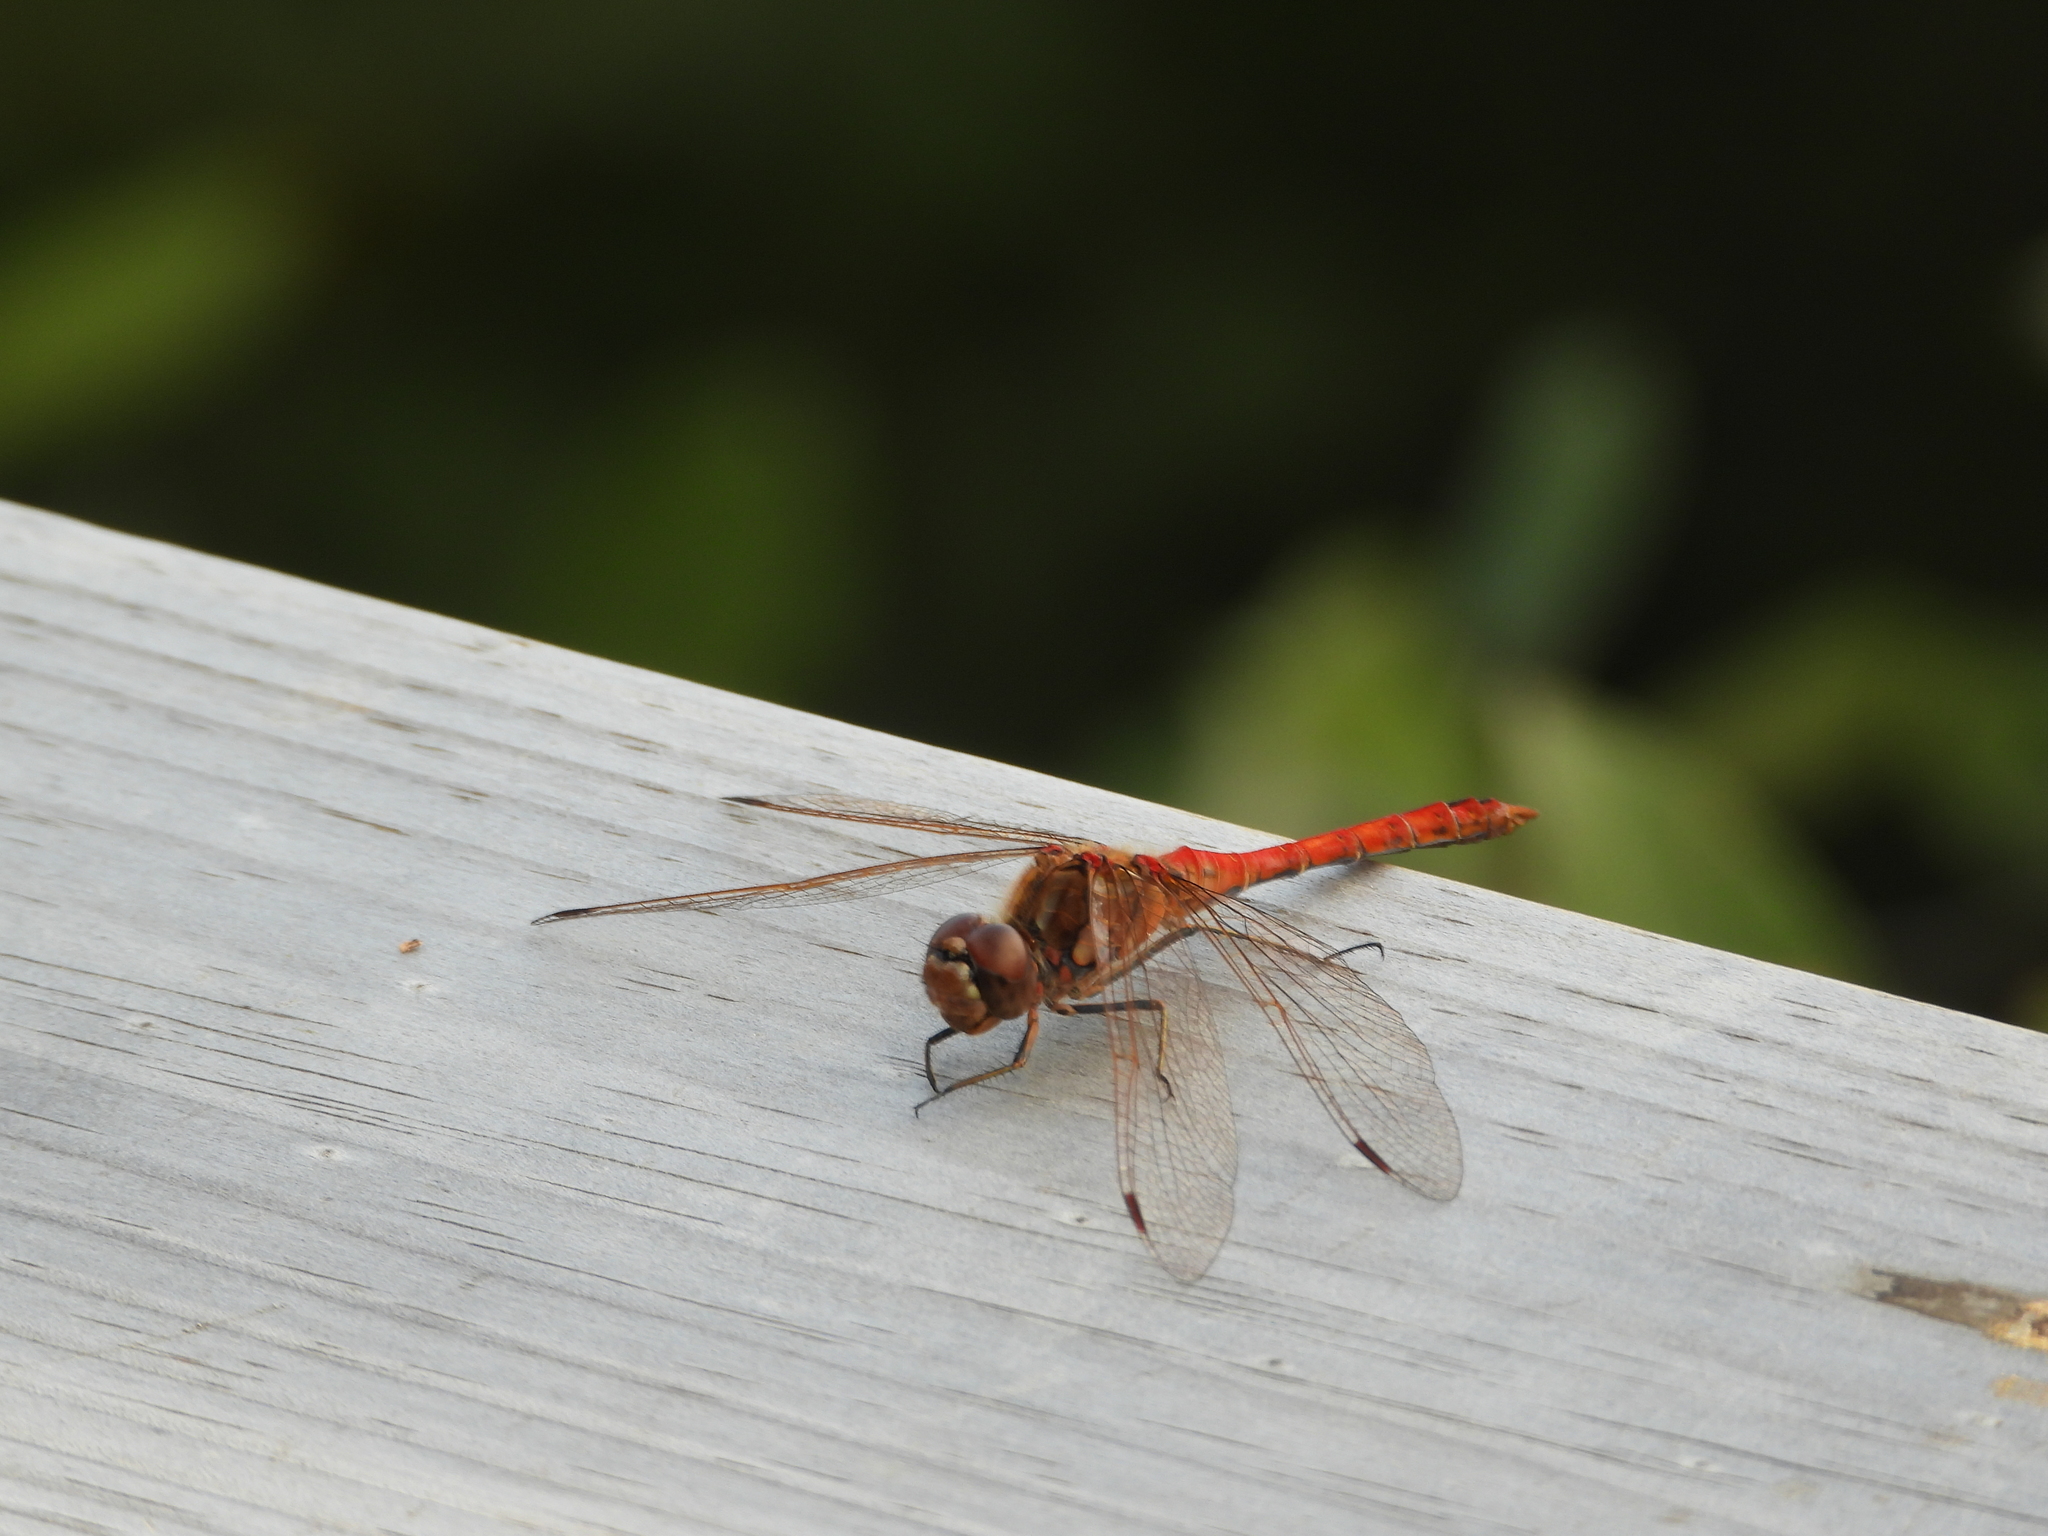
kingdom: Animalia
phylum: Arthropoda
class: Insecta
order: Odonata
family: Libellulidae
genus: Sympetrum
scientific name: Sympetrum vulgatum
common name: Vagrant darter
